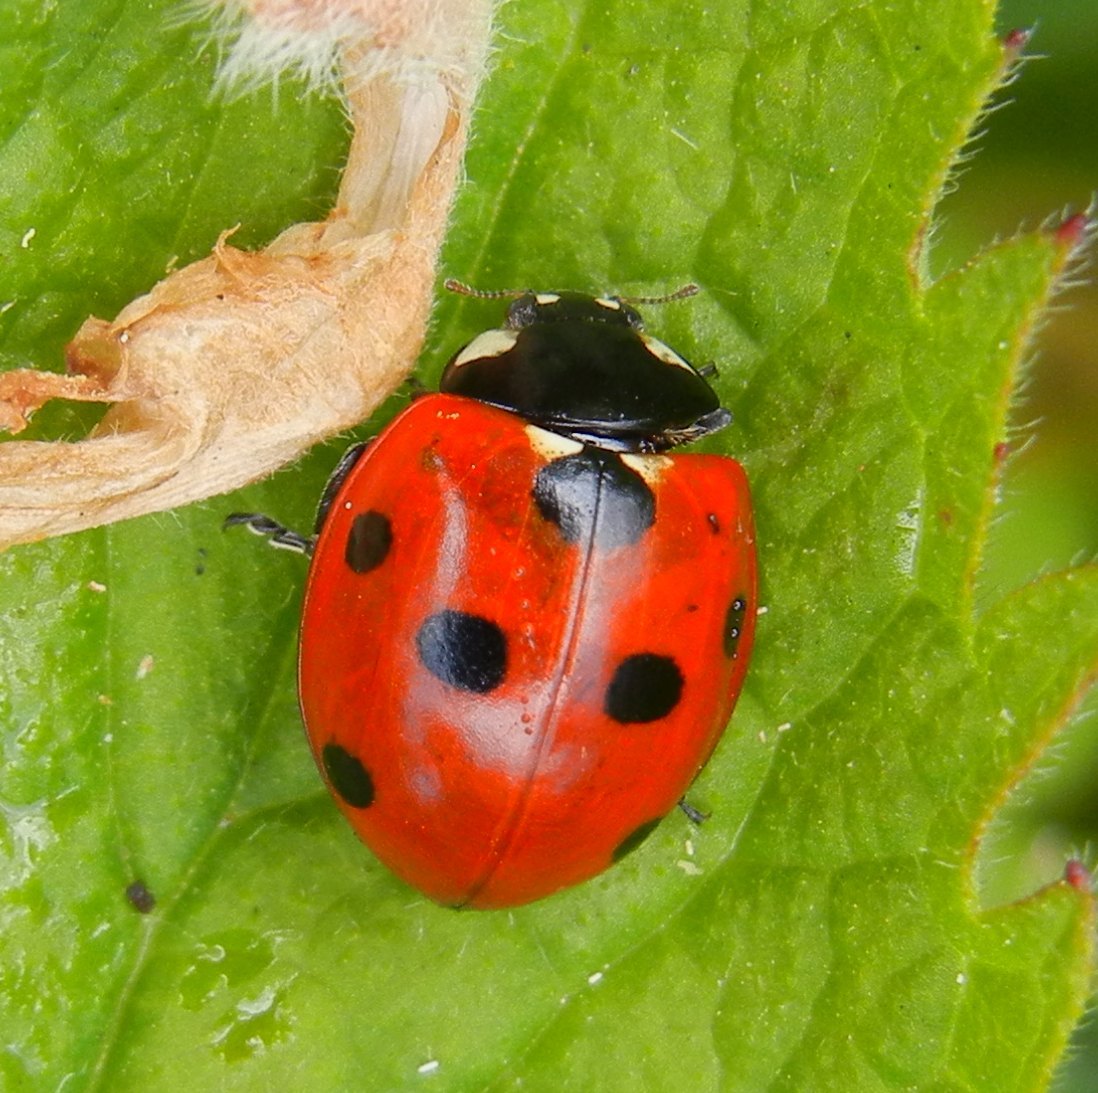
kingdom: Animalia
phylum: Arthropoda
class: Insecta
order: Coleoptera
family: Coccinellidae
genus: Coccinella
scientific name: Coccinella septempunctata
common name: Sevenspotted lady beetle
